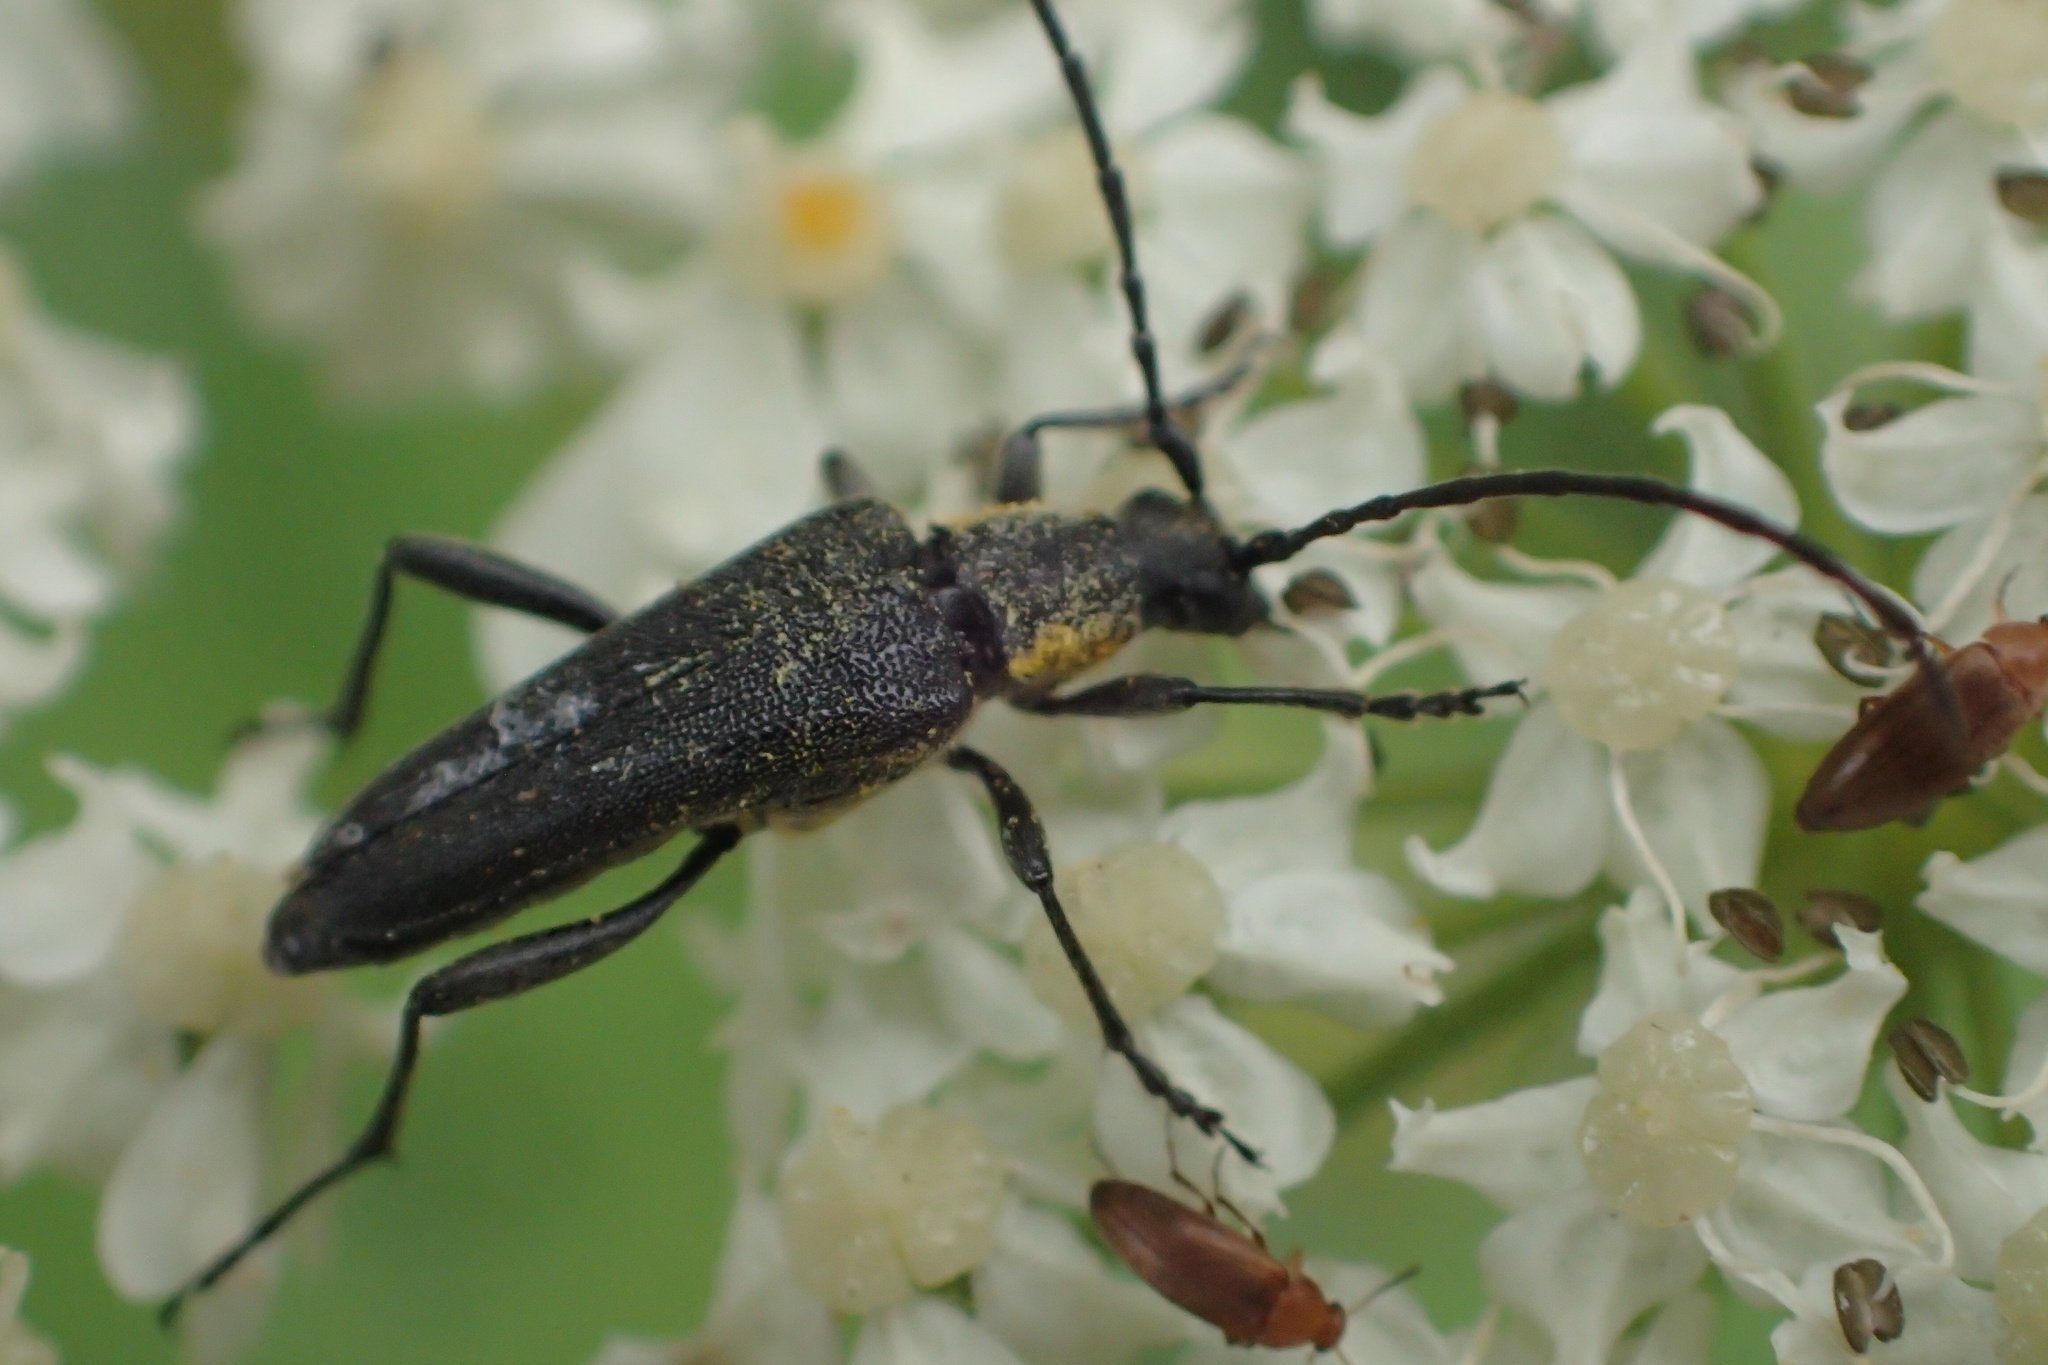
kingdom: Animalia
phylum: Arthropoda
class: Insecta
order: Coleoptera
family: Cerambycidae
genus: Trachysida
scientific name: Trachysida mutabilis
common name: Changeable flower longhorn
